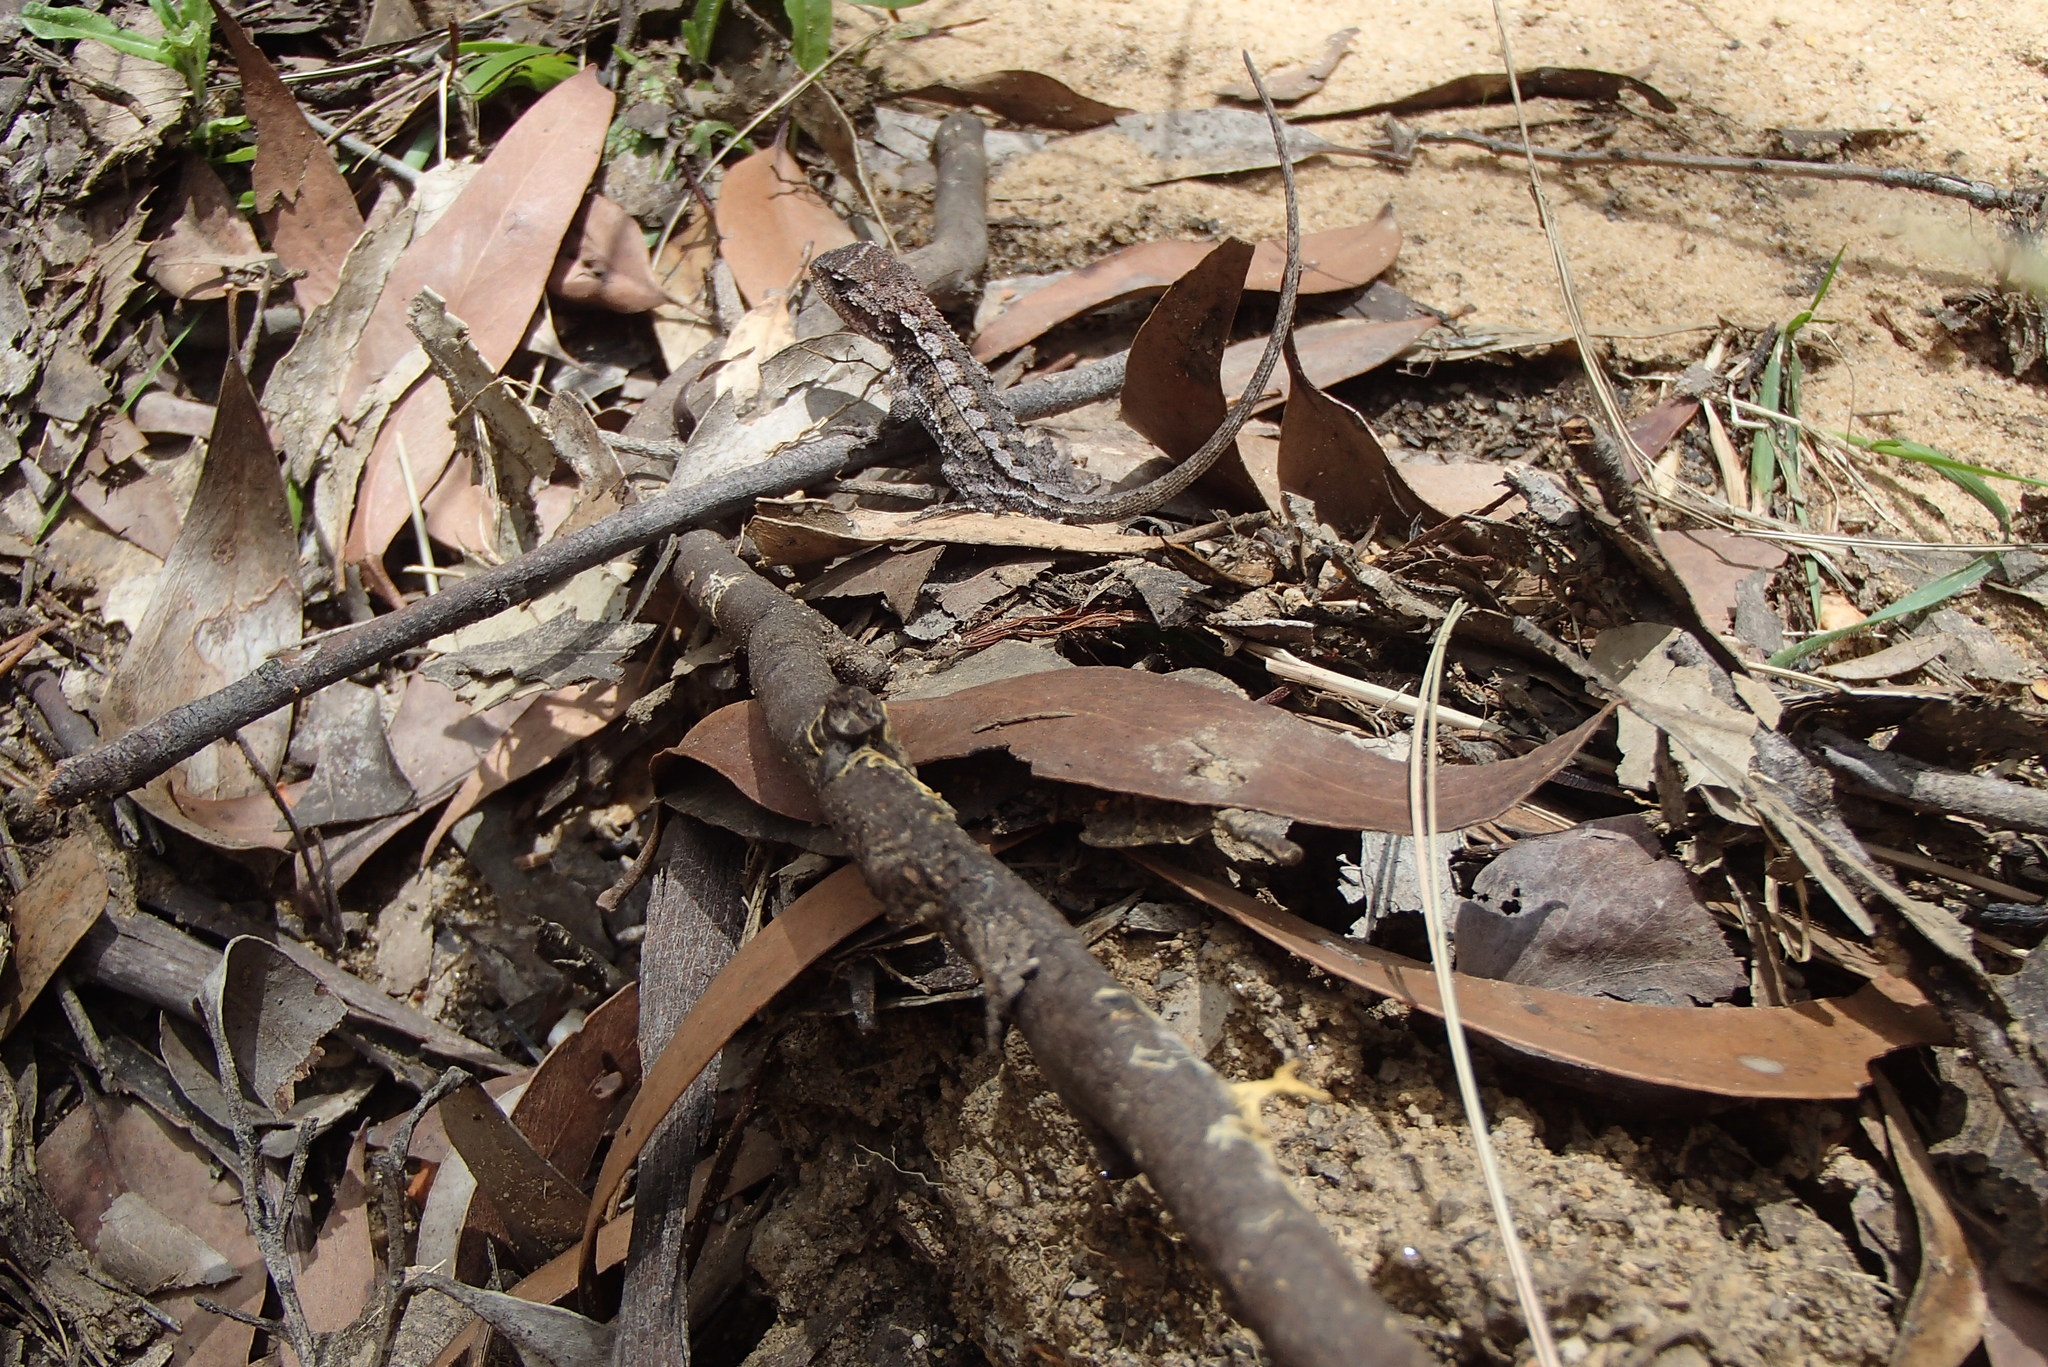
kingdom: Animalia
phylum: Chordata
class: Squamata
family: Agamidae
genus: Rankinia
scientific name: Rankinia diemensis
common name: Mountain dragon
